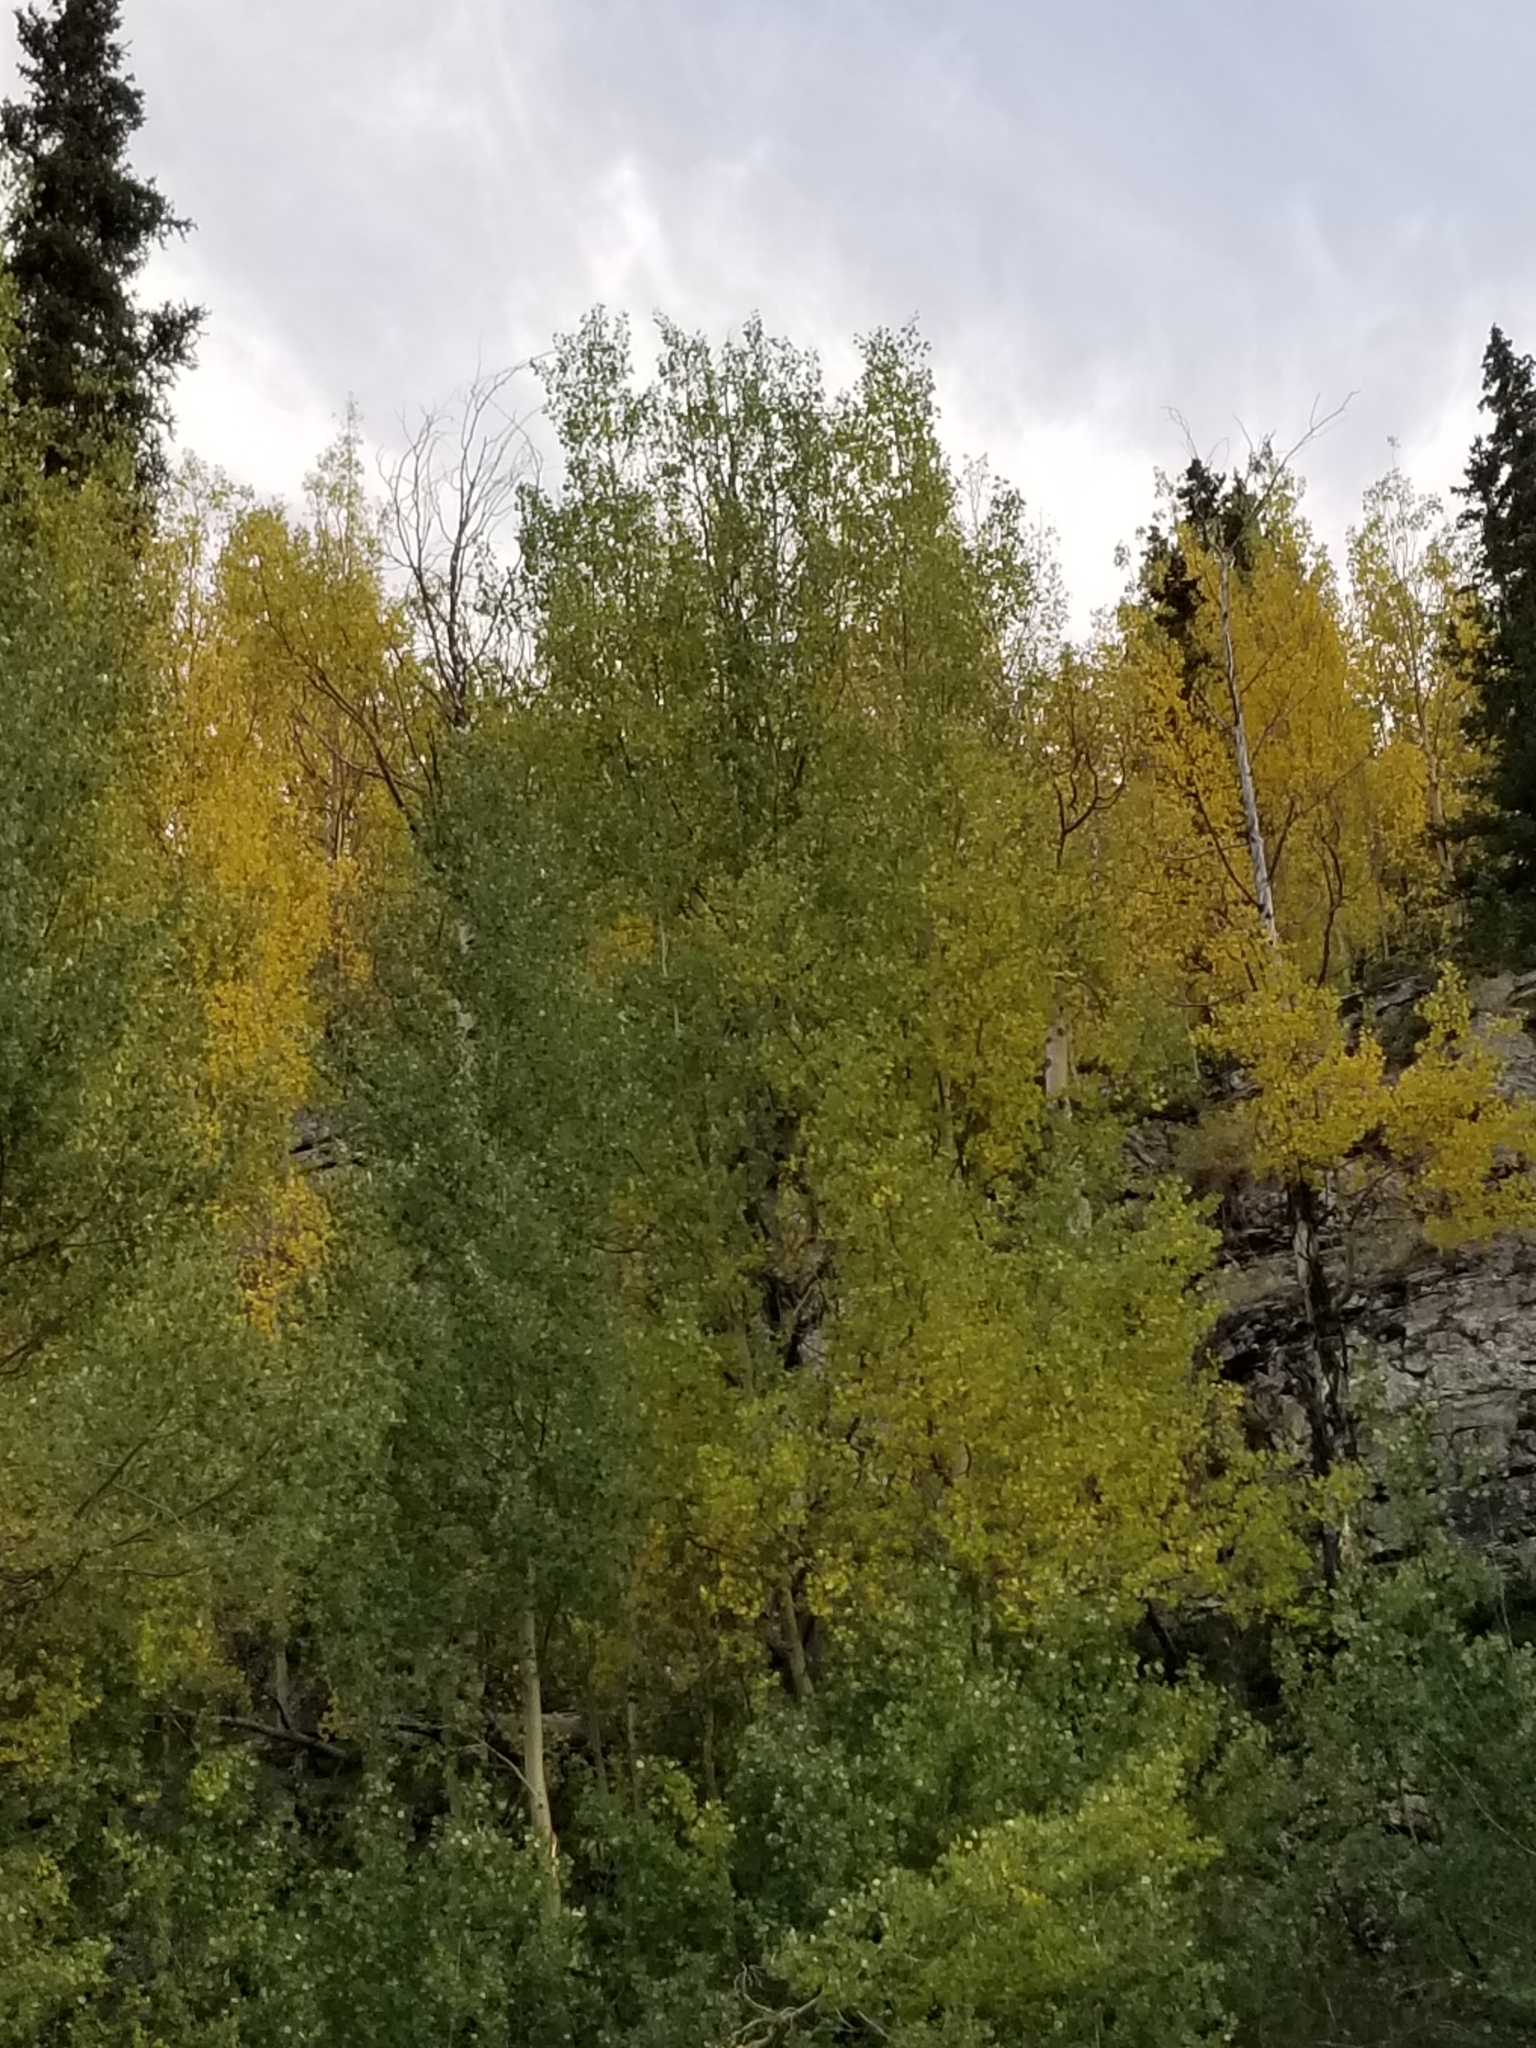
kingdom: Plantae
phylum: Tracheophyta
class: Magnoliopsida
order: Malpighiales
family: Salicaceae
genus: Populus
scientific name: Populus tremuloides
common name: Quaking aspen
